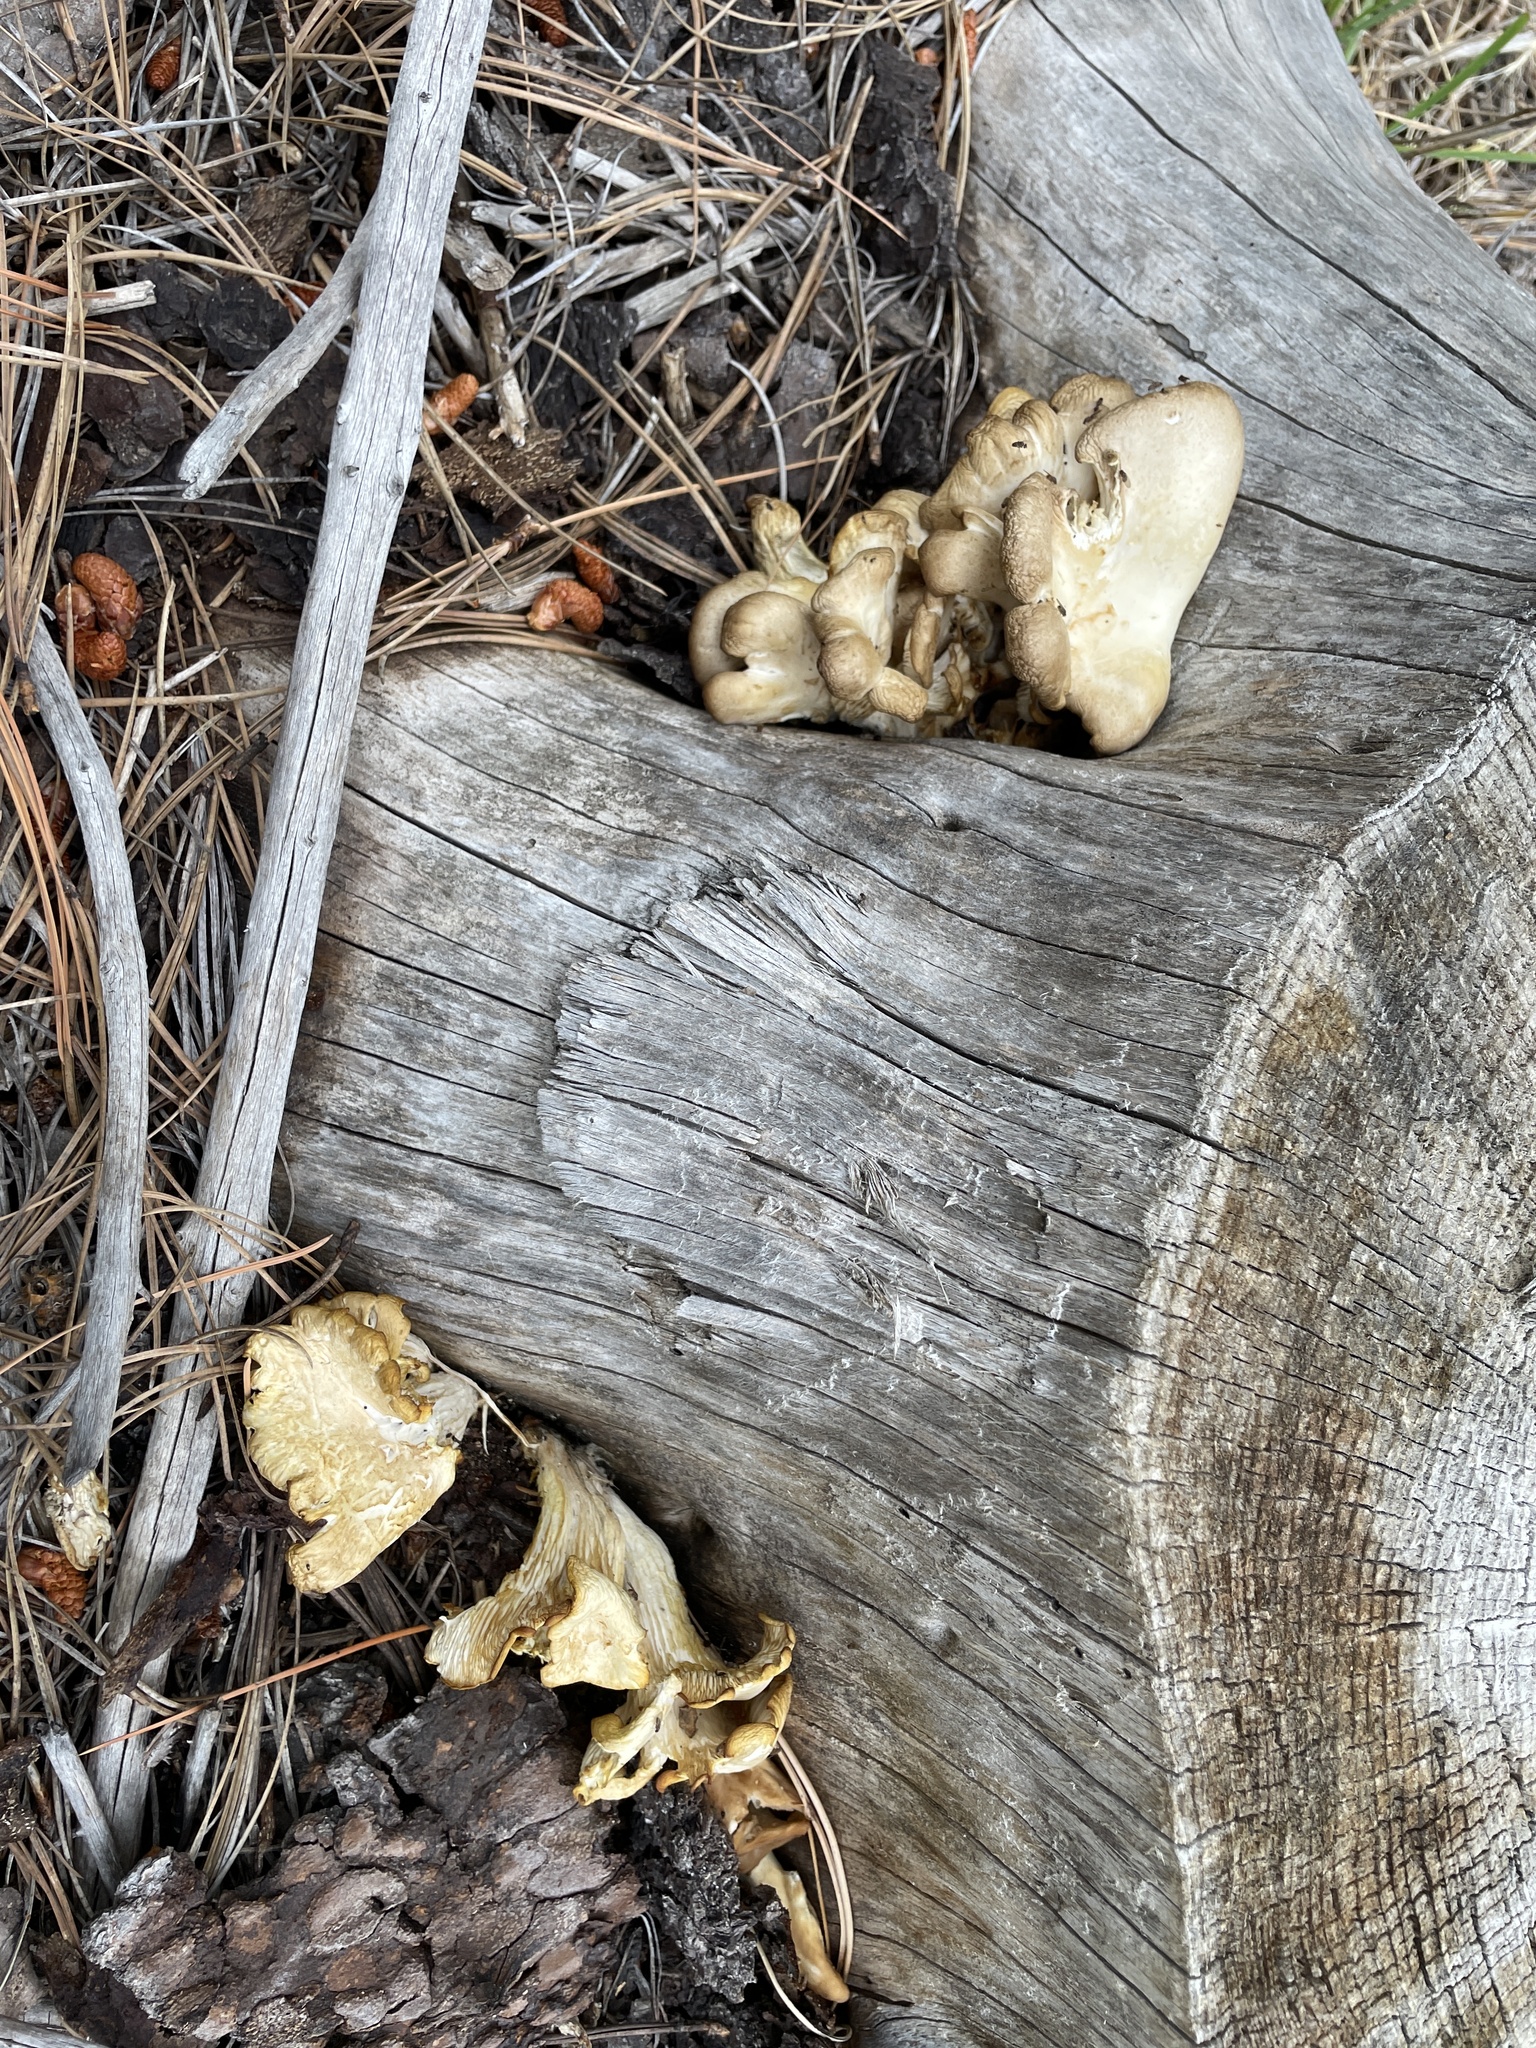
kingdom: Fungi
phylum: Basidiomycota
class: Agaricomycetes
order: Agaricales
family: Pleurotaceae
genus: Pleurotus
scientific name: Pleurotus pulmonarius
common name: Pale oyster
